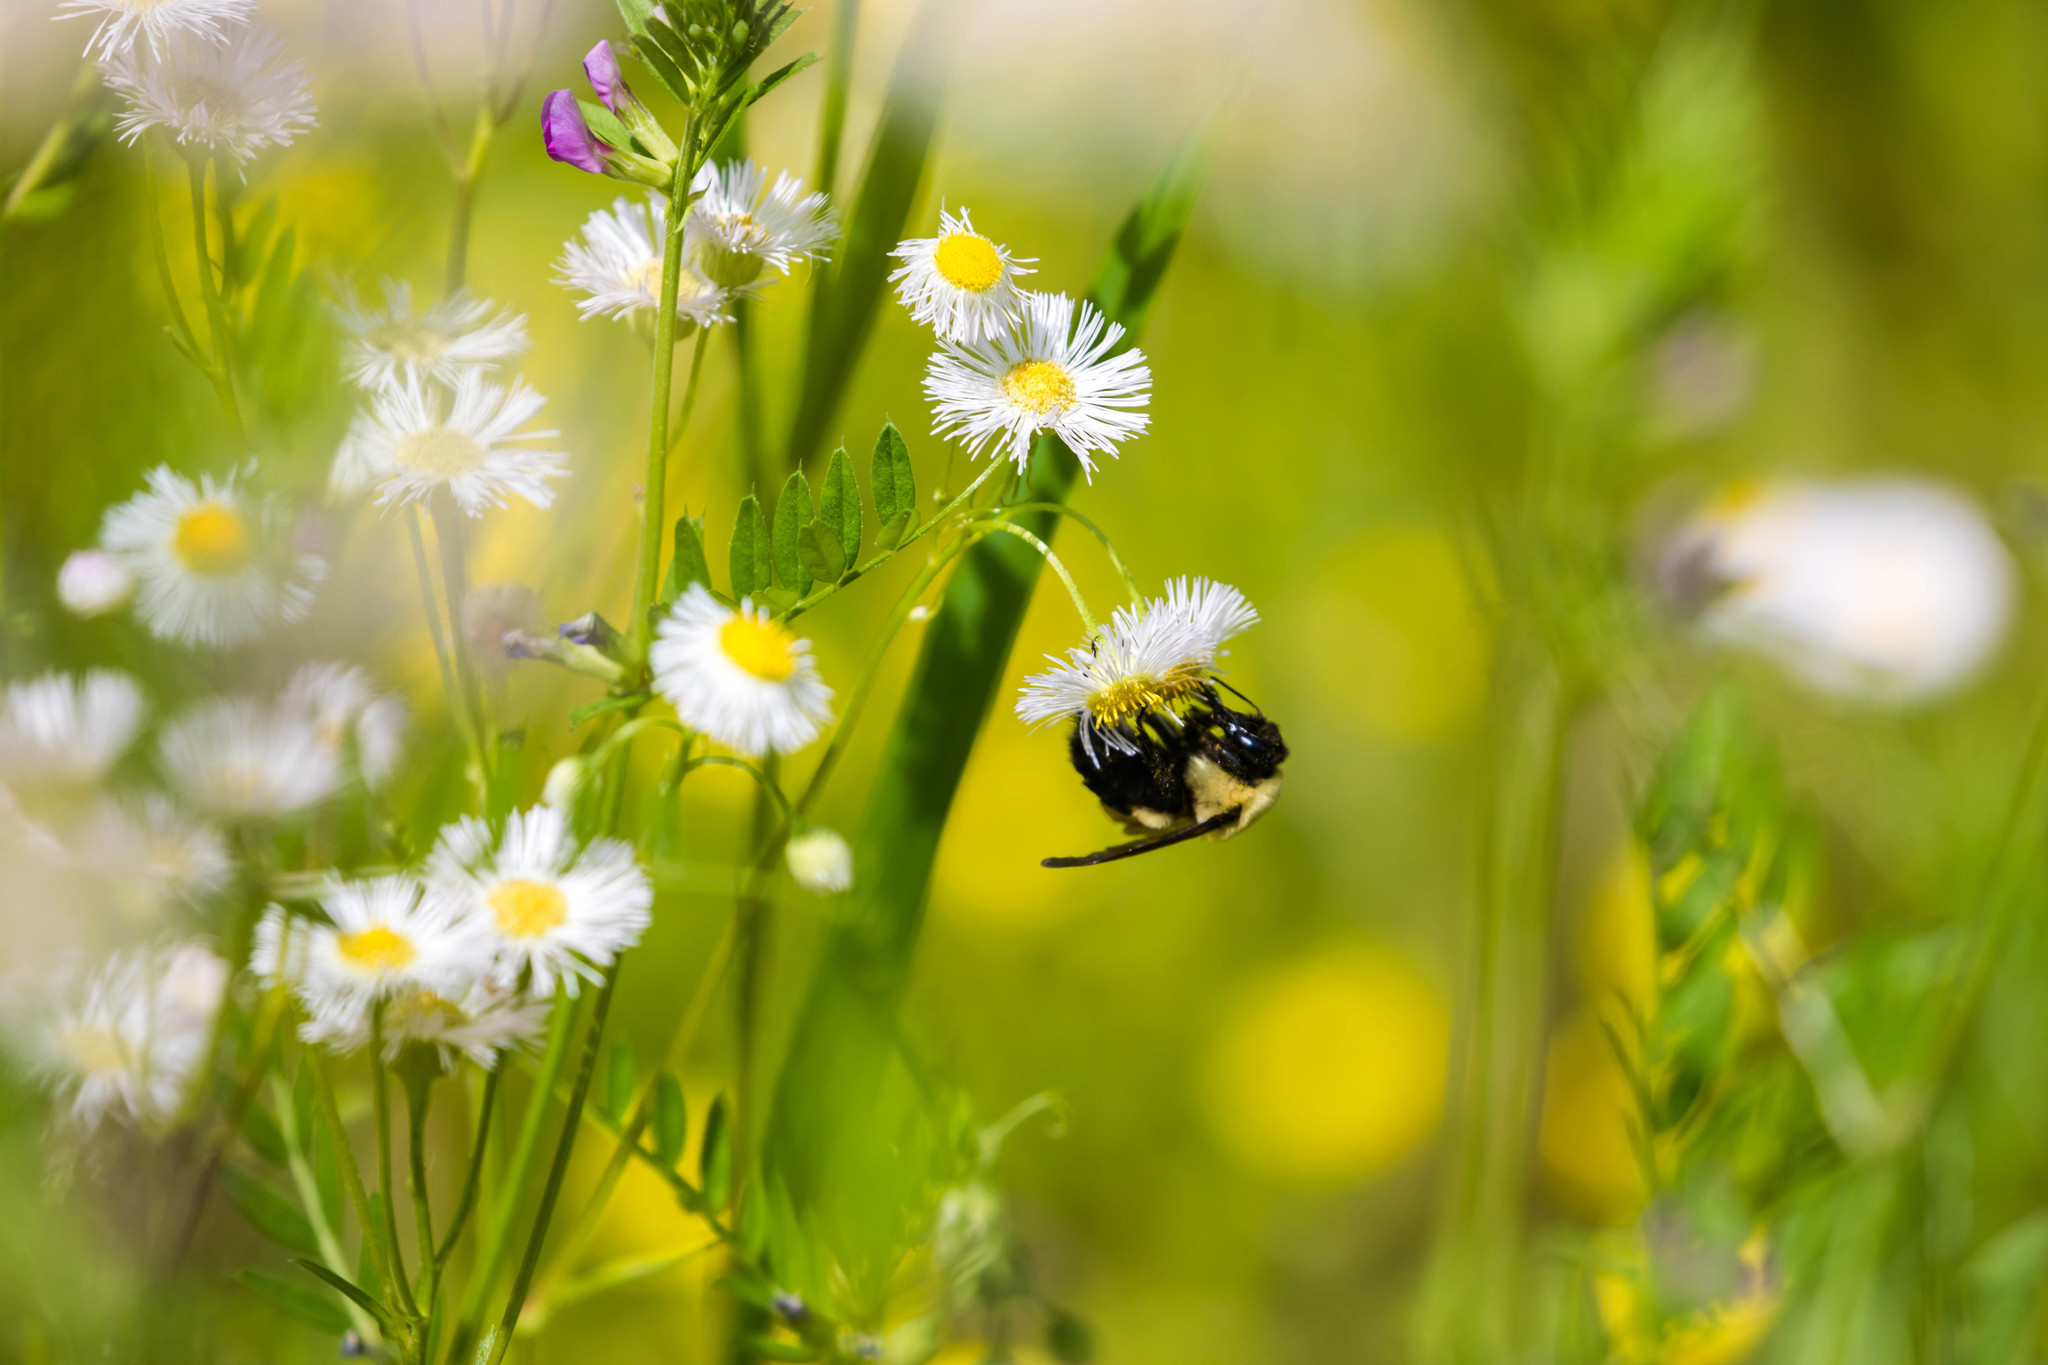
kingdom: Animalia
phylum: Arthropoda
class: Insecta
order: Hymenoptera
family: Apidae
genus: Bombus
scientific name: Bombus griseocollis
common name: Brown-belted bumble bee
